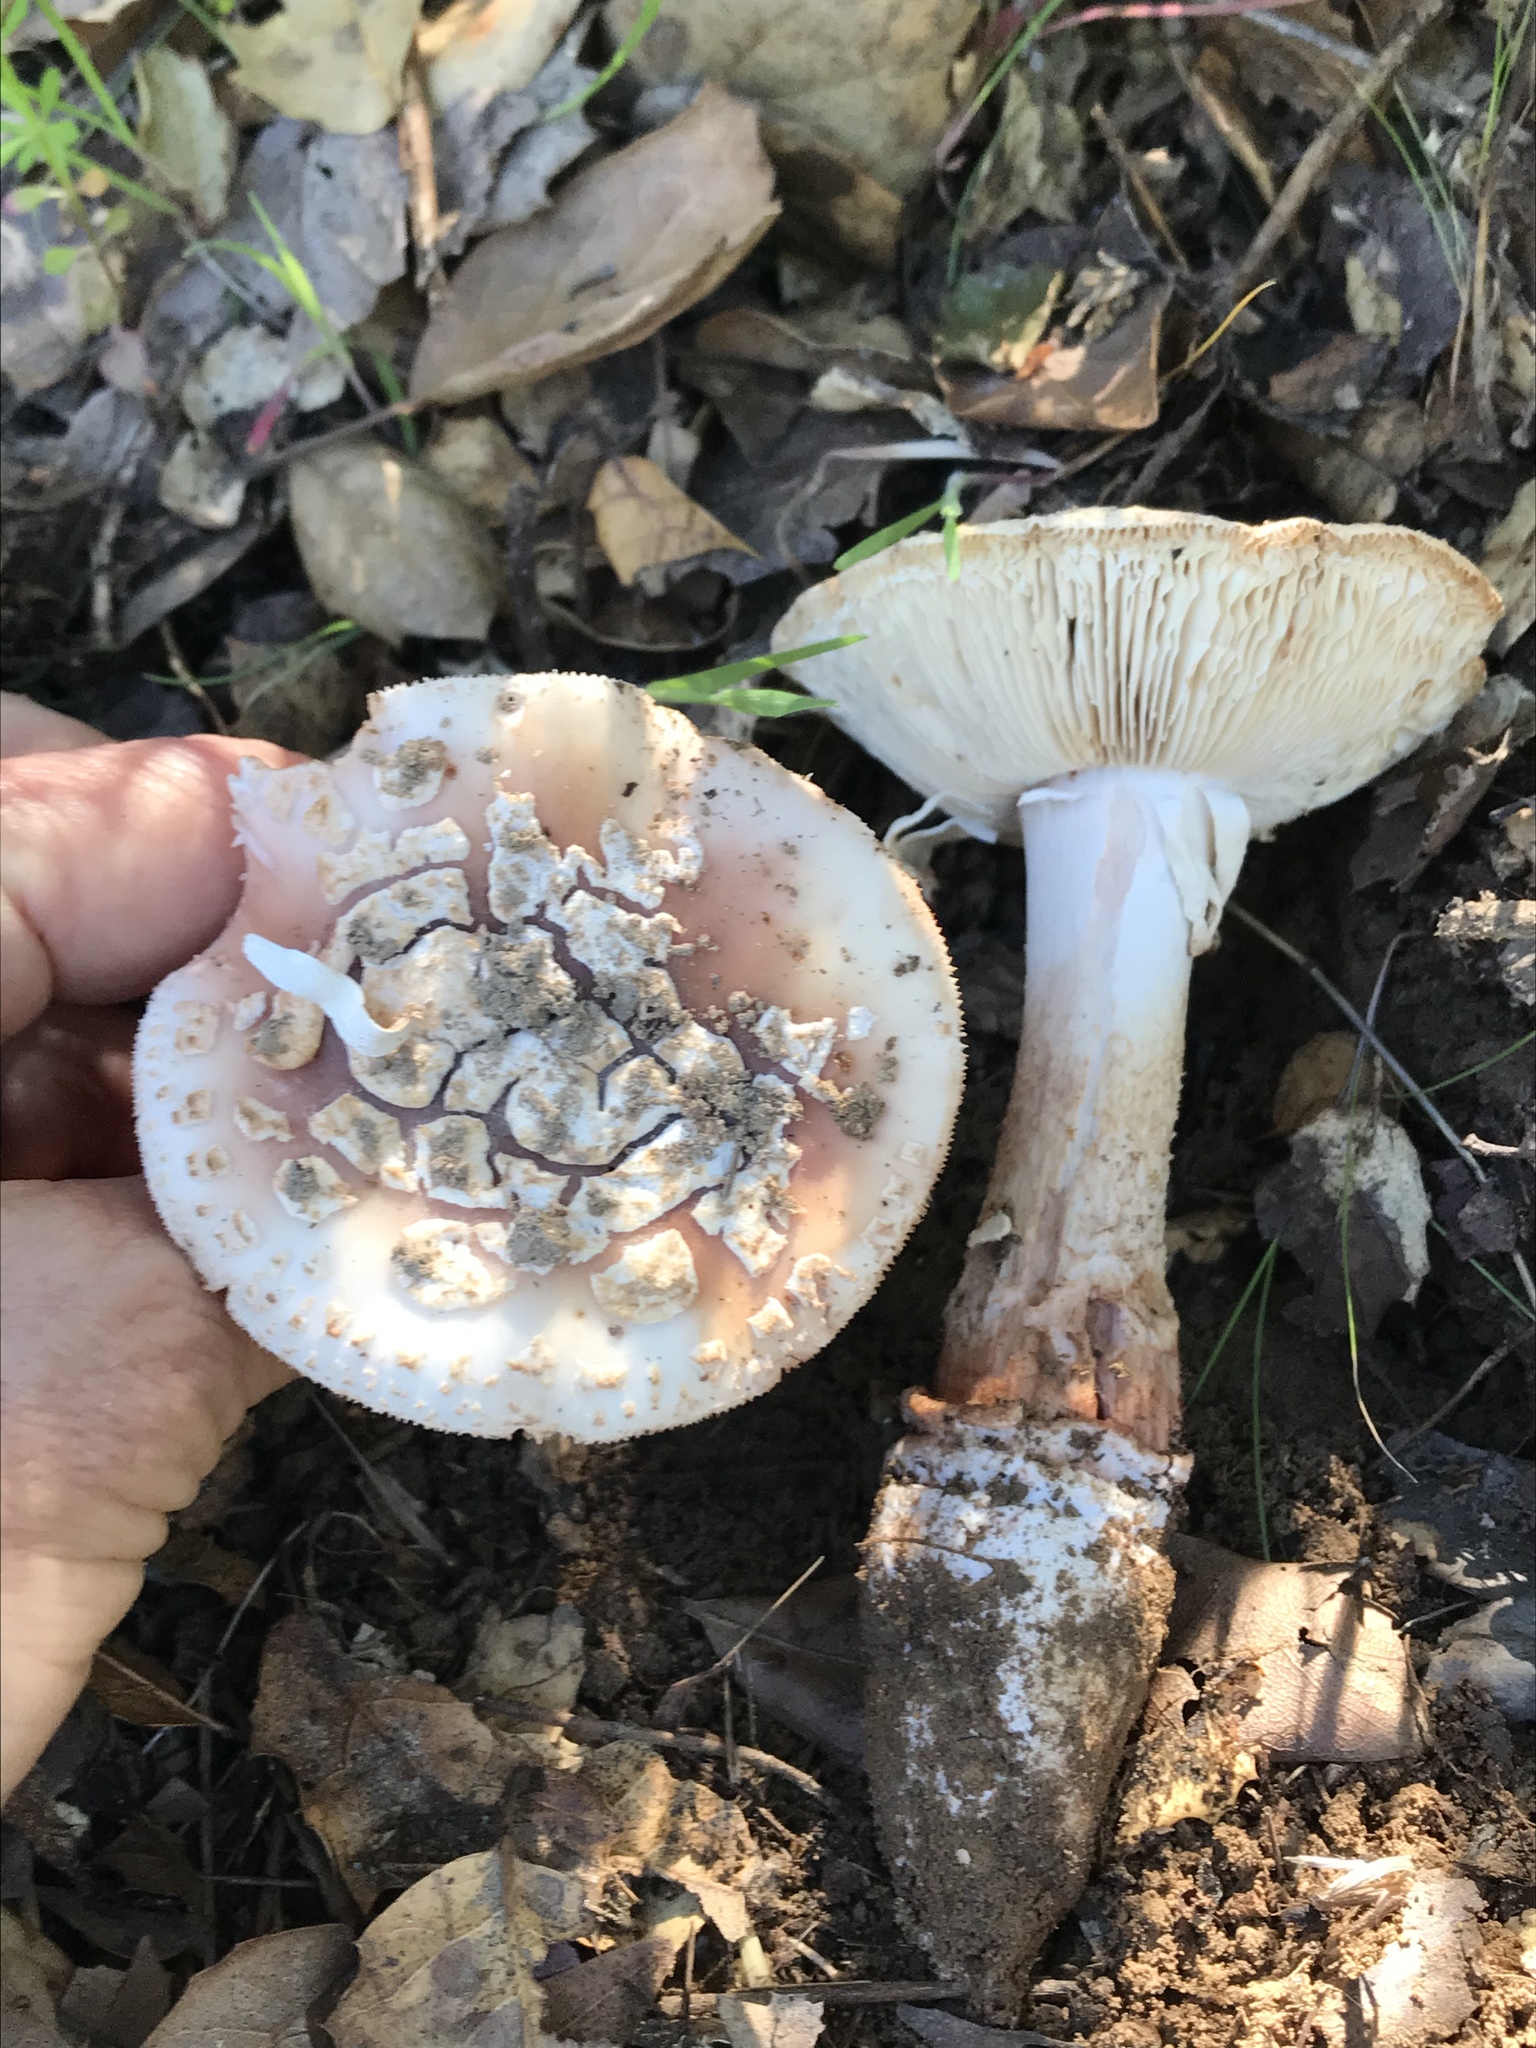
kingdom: Fungi
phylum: Basidiomycota
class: Agaricomycetes
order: Agaricales
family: Amanitaceae
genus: Amanita
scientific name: Amanita novinupta
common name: Blushing bride
